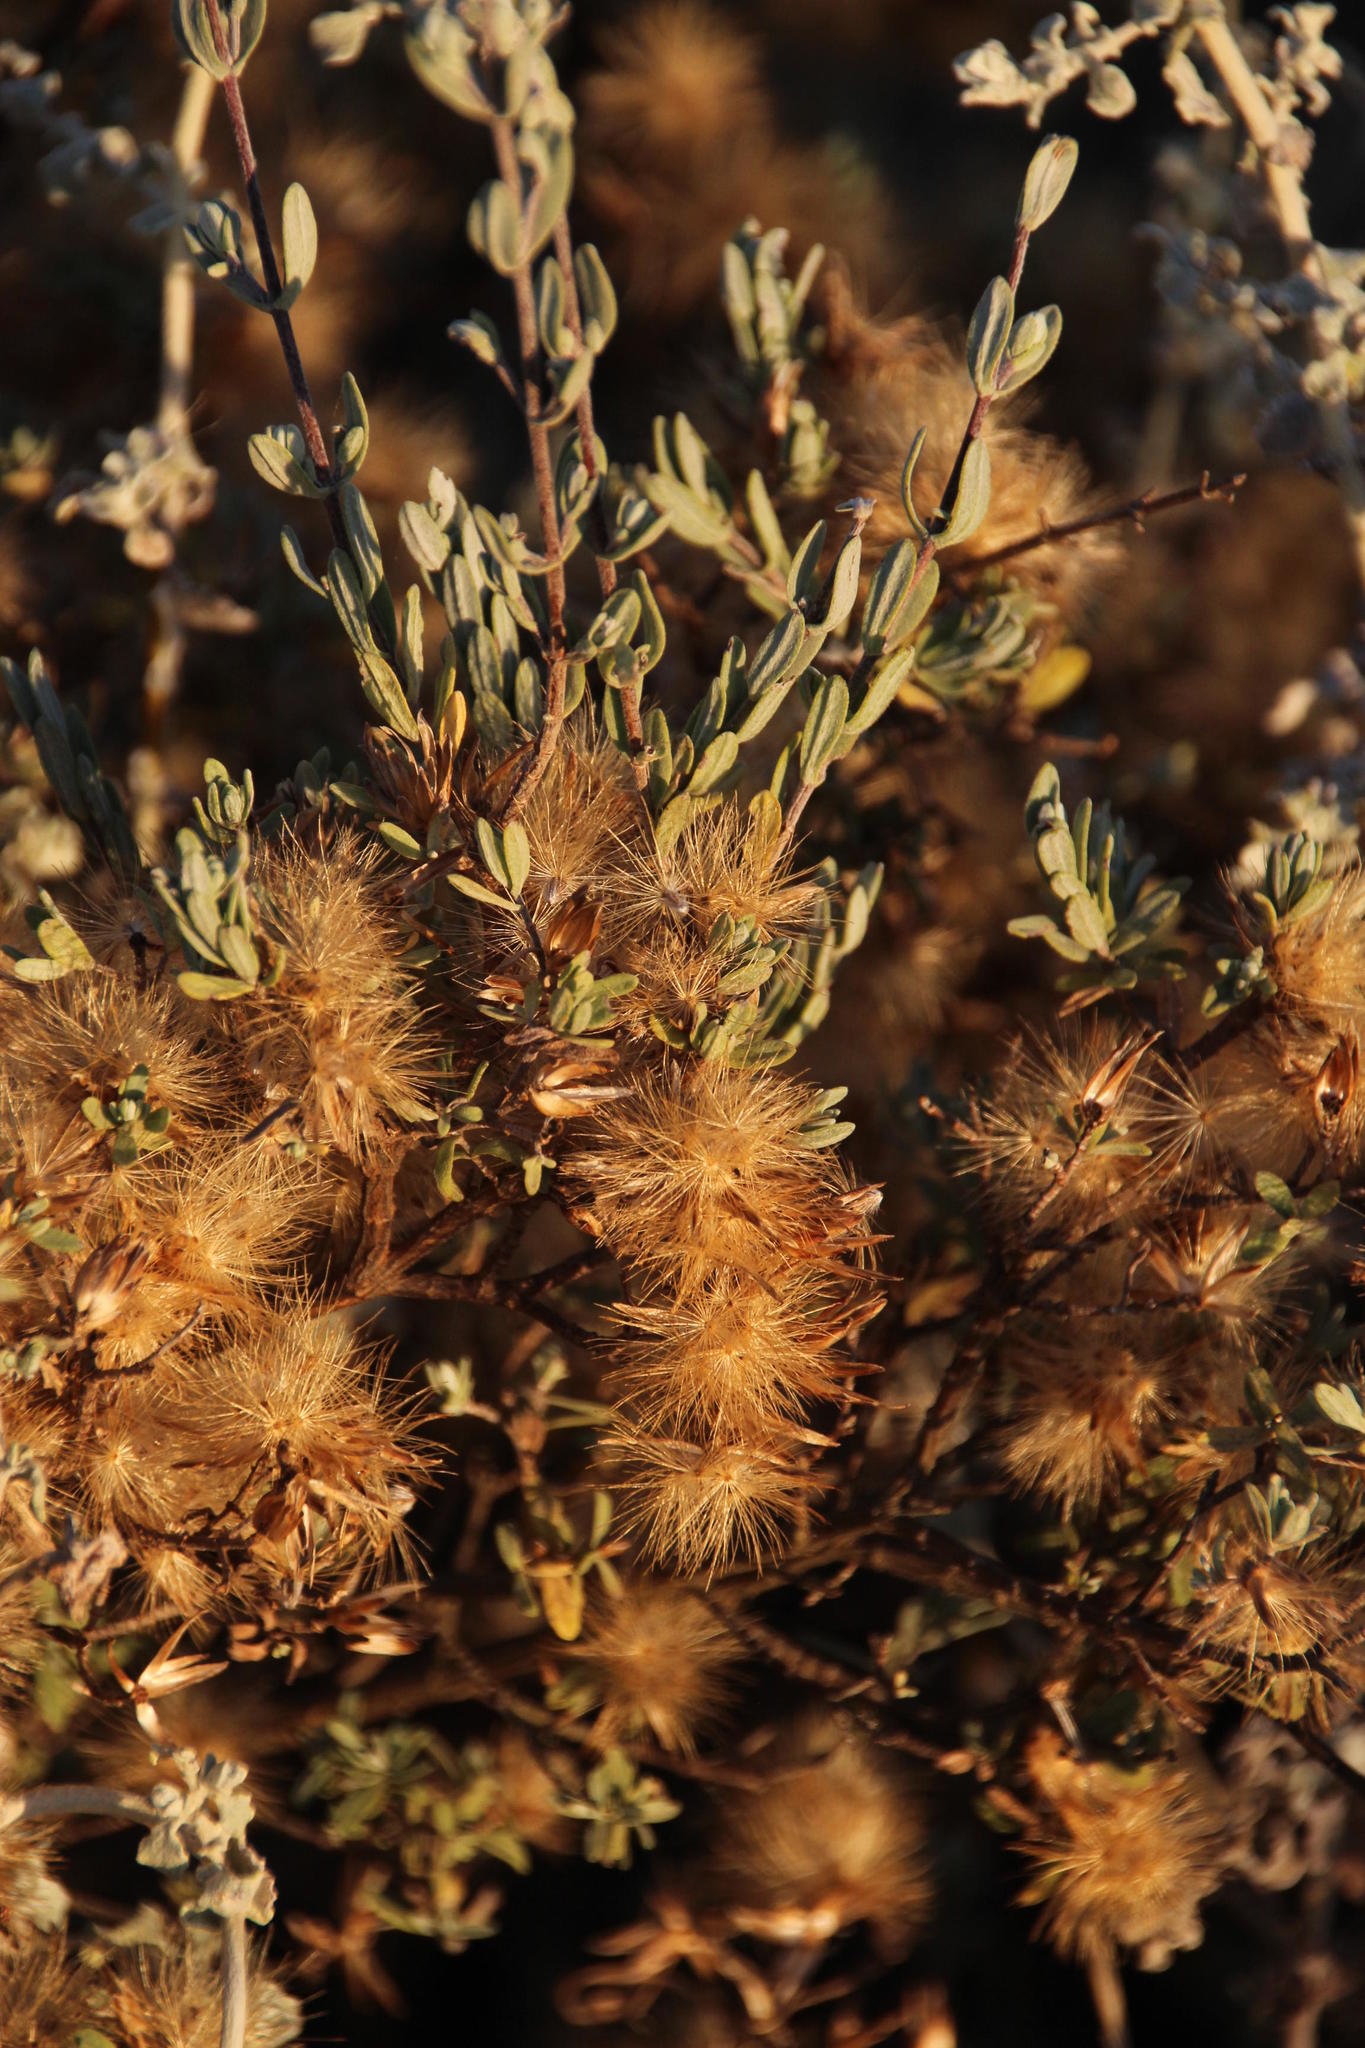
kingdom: Plantae
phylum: Tracheophyta
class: Magnoliopsida
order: Asterales
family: Asteraceae
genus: Seriphium
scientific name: Seriphium plumosum
